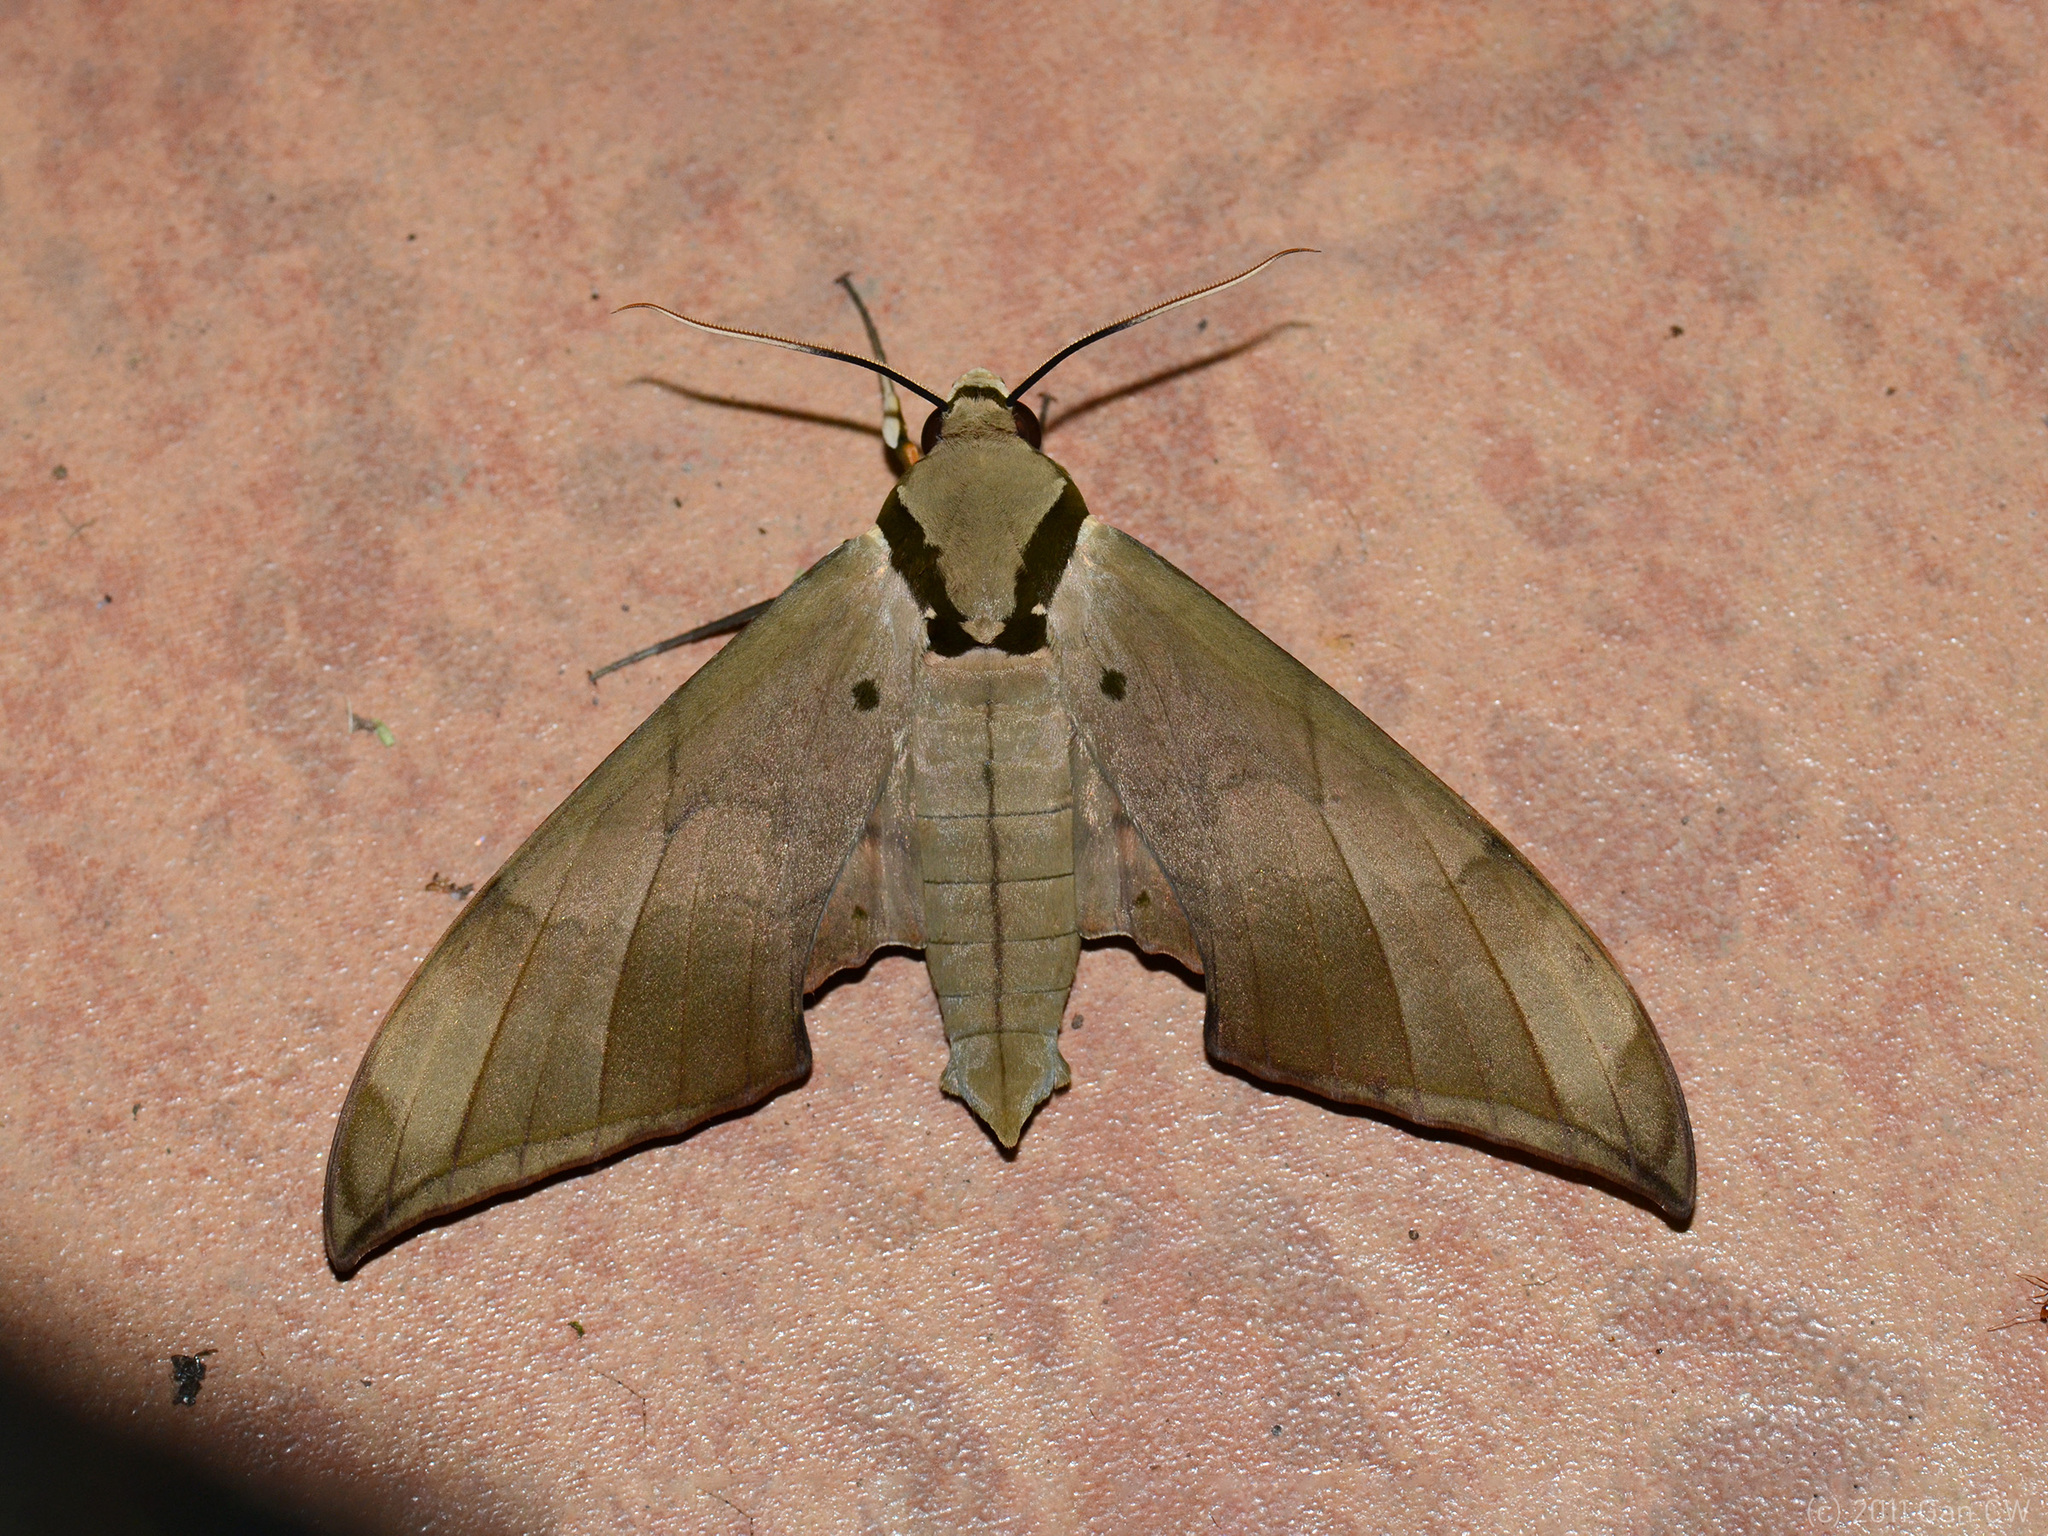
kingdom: Animalia
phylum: Arthropoda
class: Insecta
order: Lepidoptera
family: Sphingidae
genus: Ambulyx
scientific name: Ambulyx staudingeri
